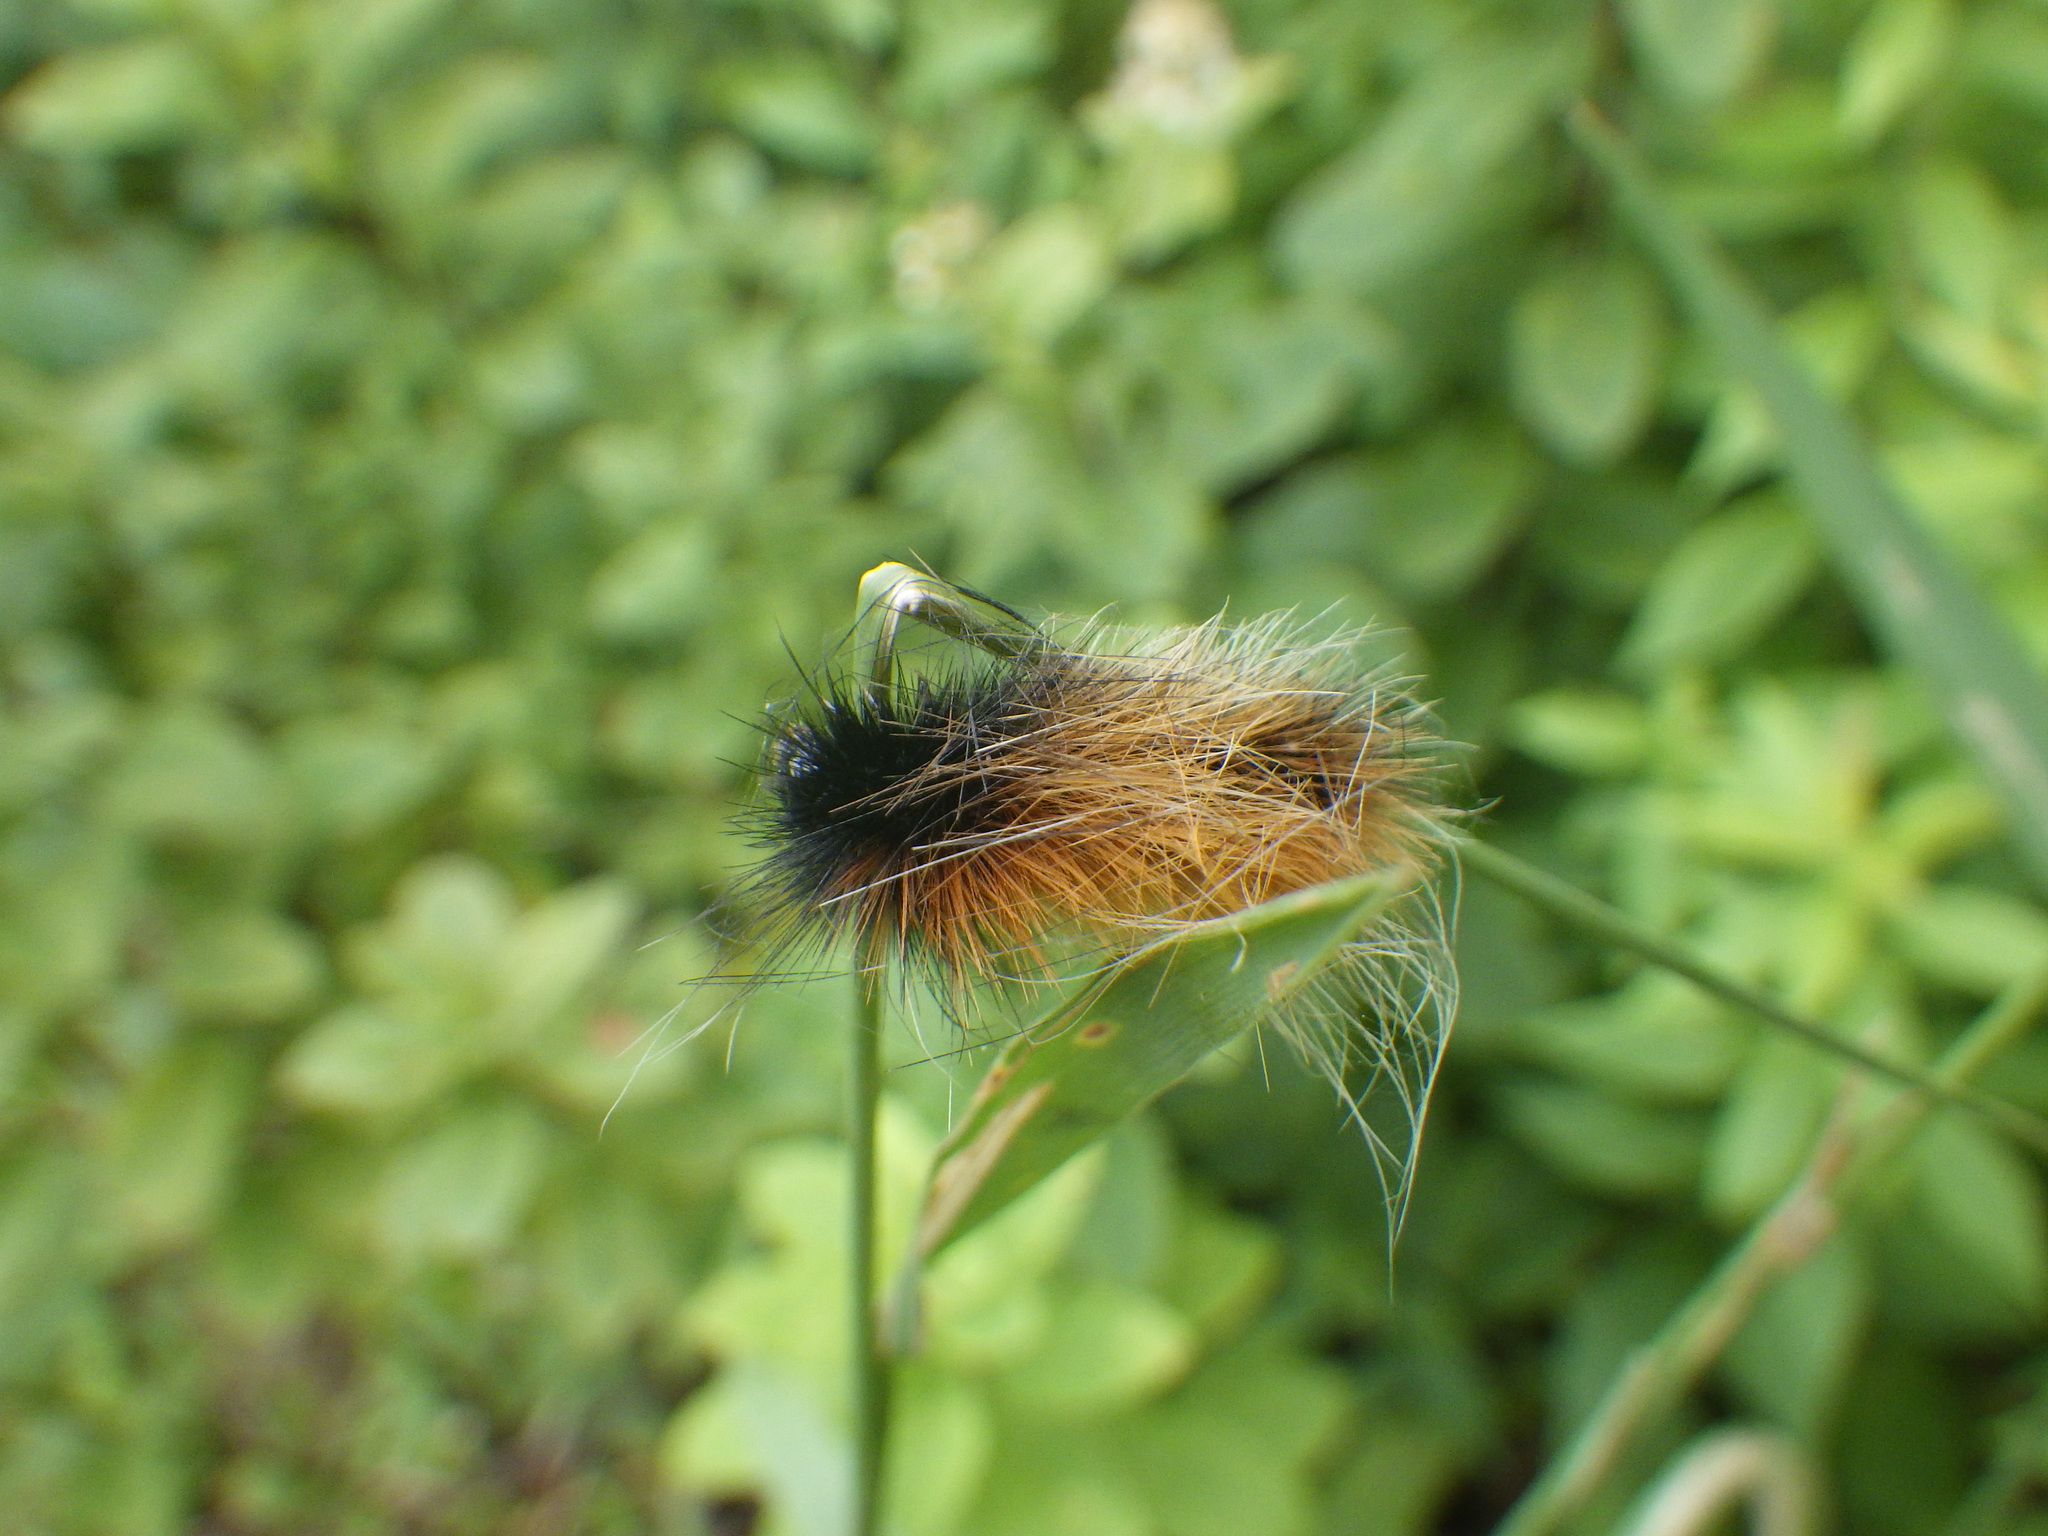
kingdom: Animalia
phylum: Arthropoda
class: Insecta
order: Lepidoptera
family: Erebidae
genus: Pyrrharctia
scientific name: Pyrrharctia isabella
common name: Isabella tiger moth
